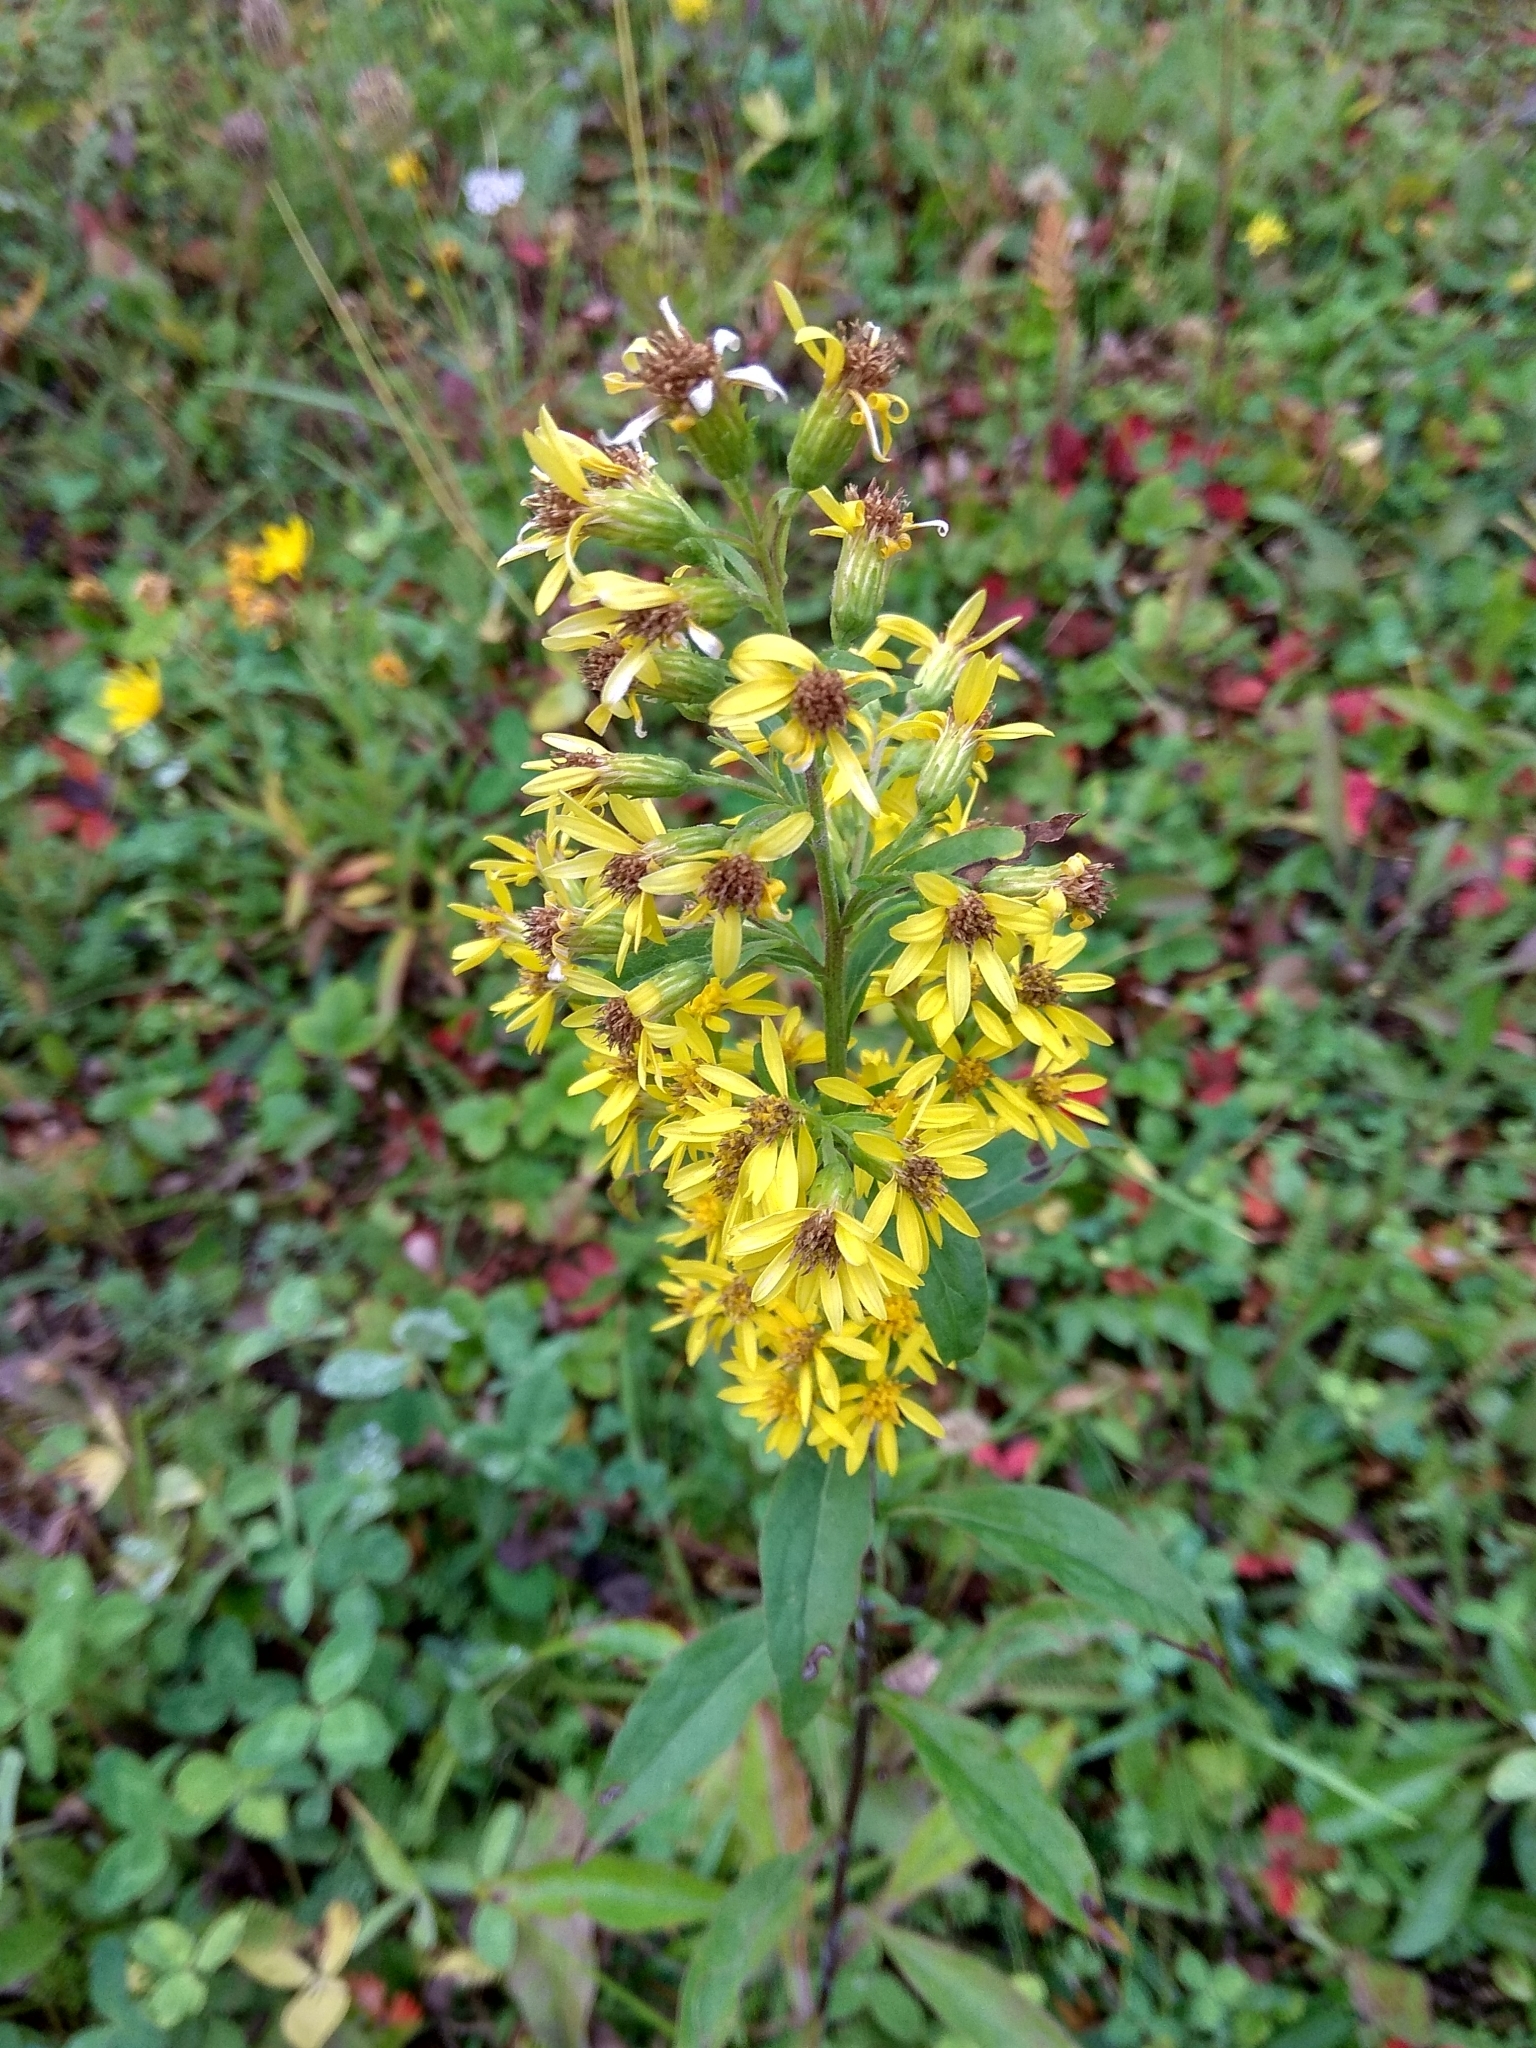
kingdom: Plantae
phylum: Tracheophyta
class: Magnoliopsida
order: Asterales
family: Asteraceae
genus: Solidago
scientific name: Solidago virgaurea
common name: Goldenrod
